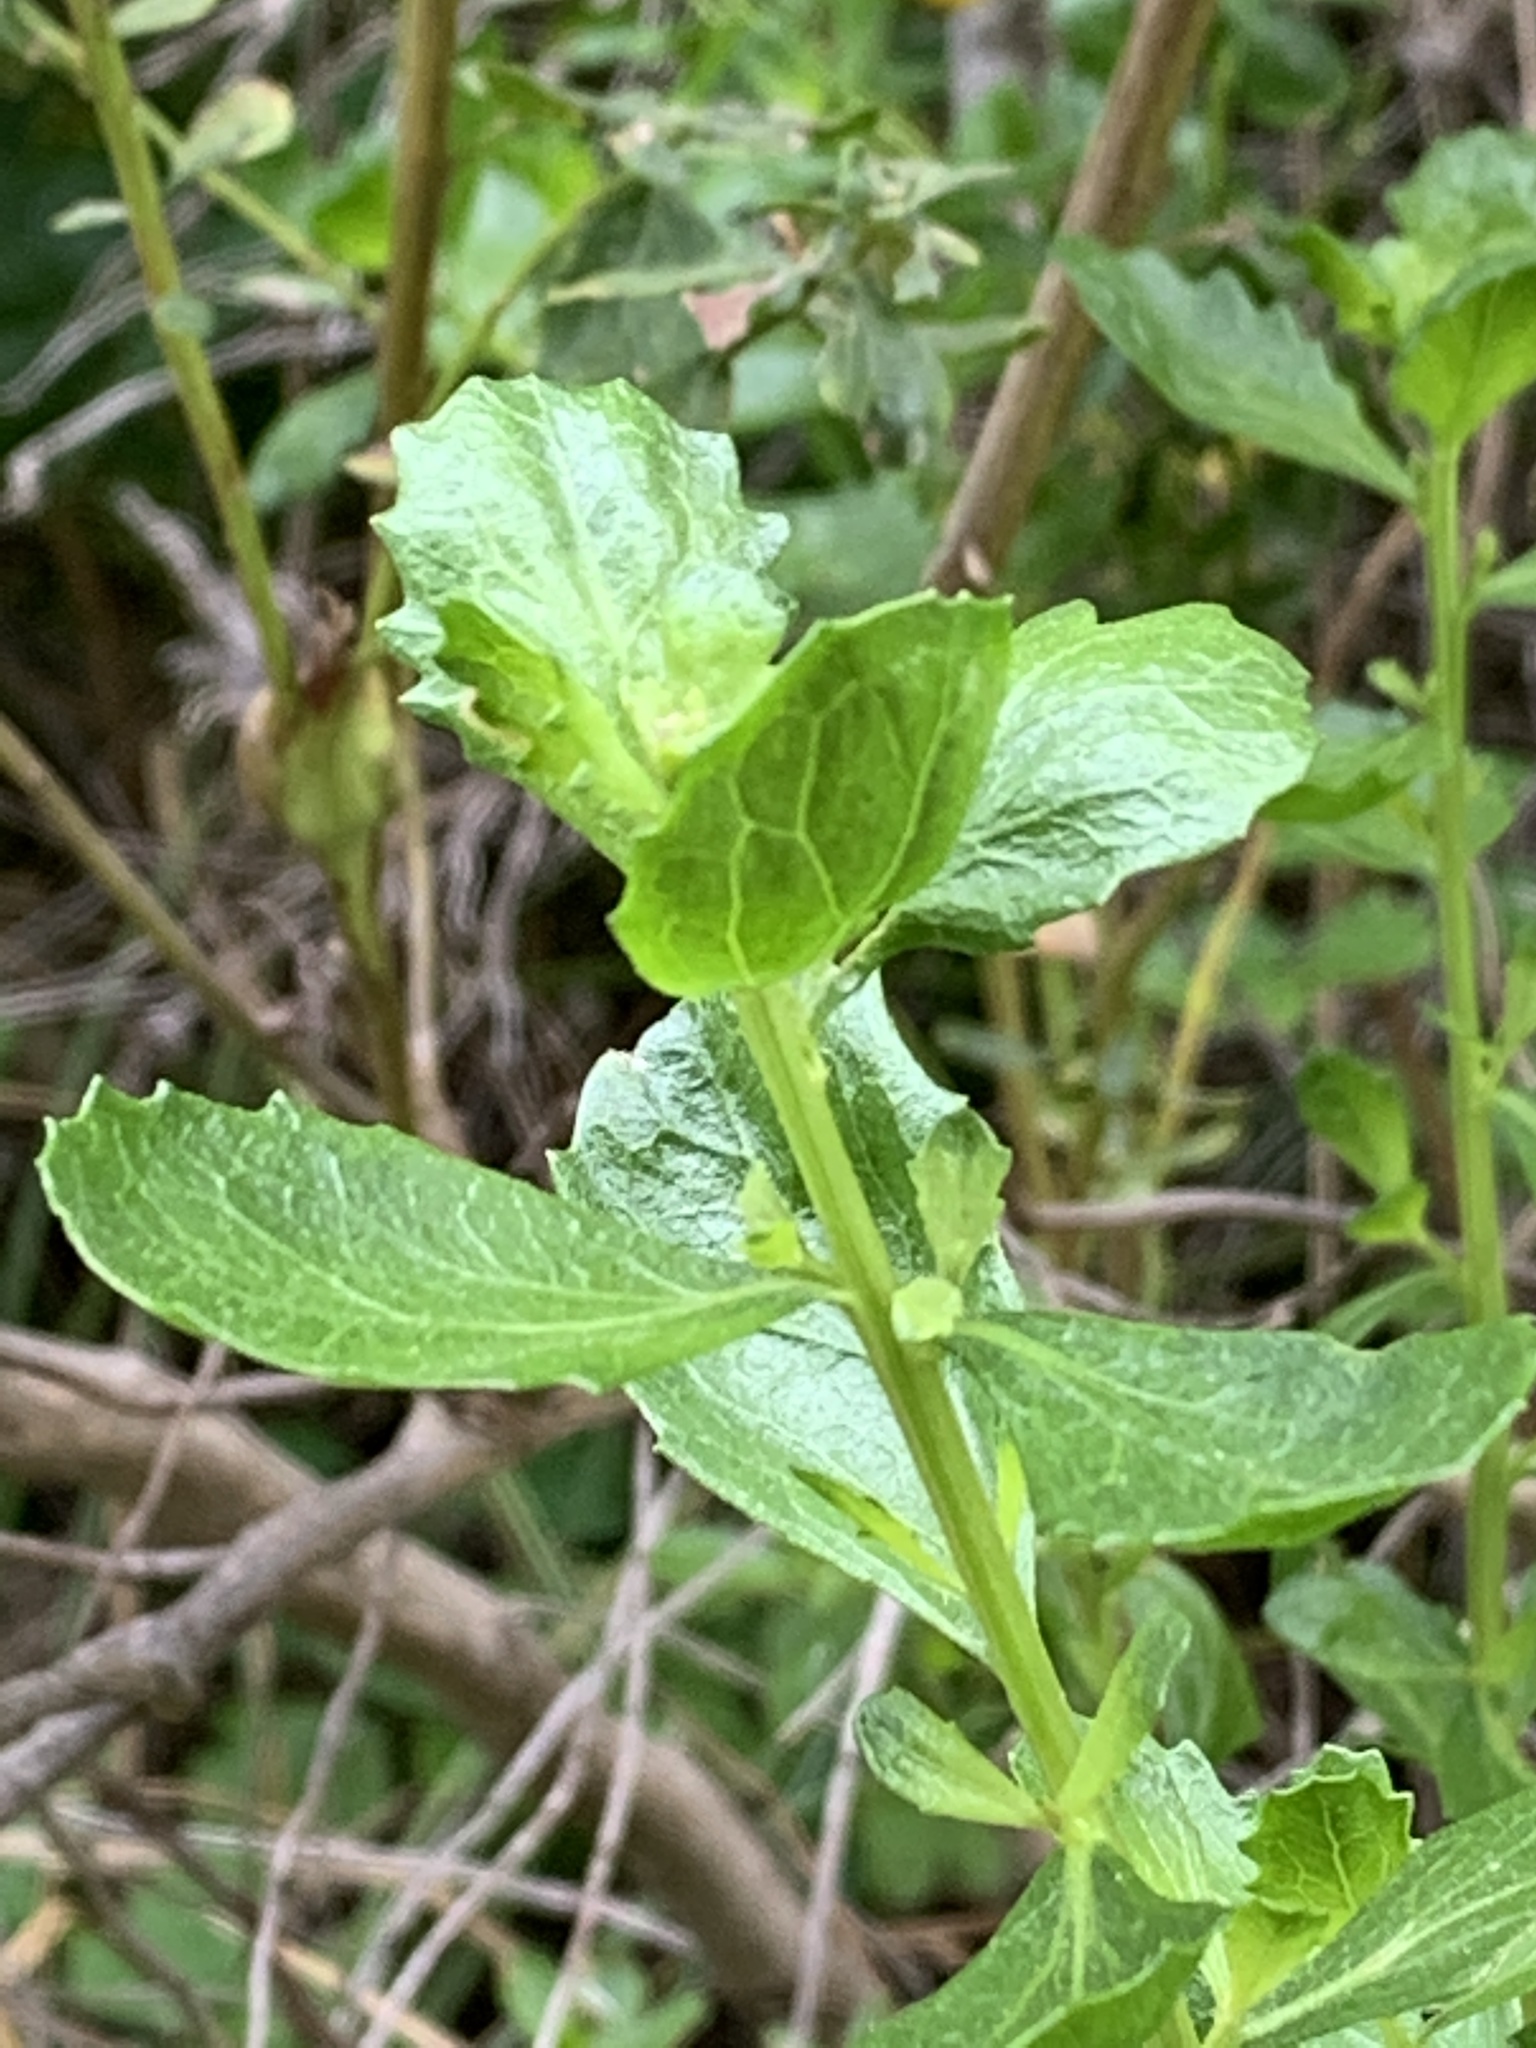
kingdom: Plantae
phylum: Tracheophyta
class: Magnoliopsida
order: Asterales
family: Asteraceae
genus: Baccharis
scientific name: Baccharis pilularis
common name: Coyotebrush
